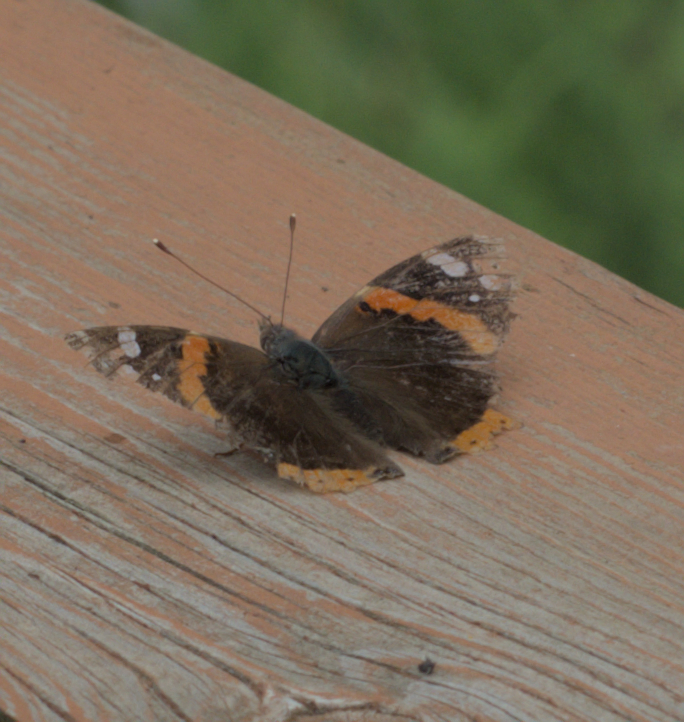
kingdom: Animalia
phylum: Arthropoda
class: Insecta
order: Lepidoptera
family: Nymphalidae
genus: Vanessa
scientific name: Vanessa atalanta
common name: Red admiral
